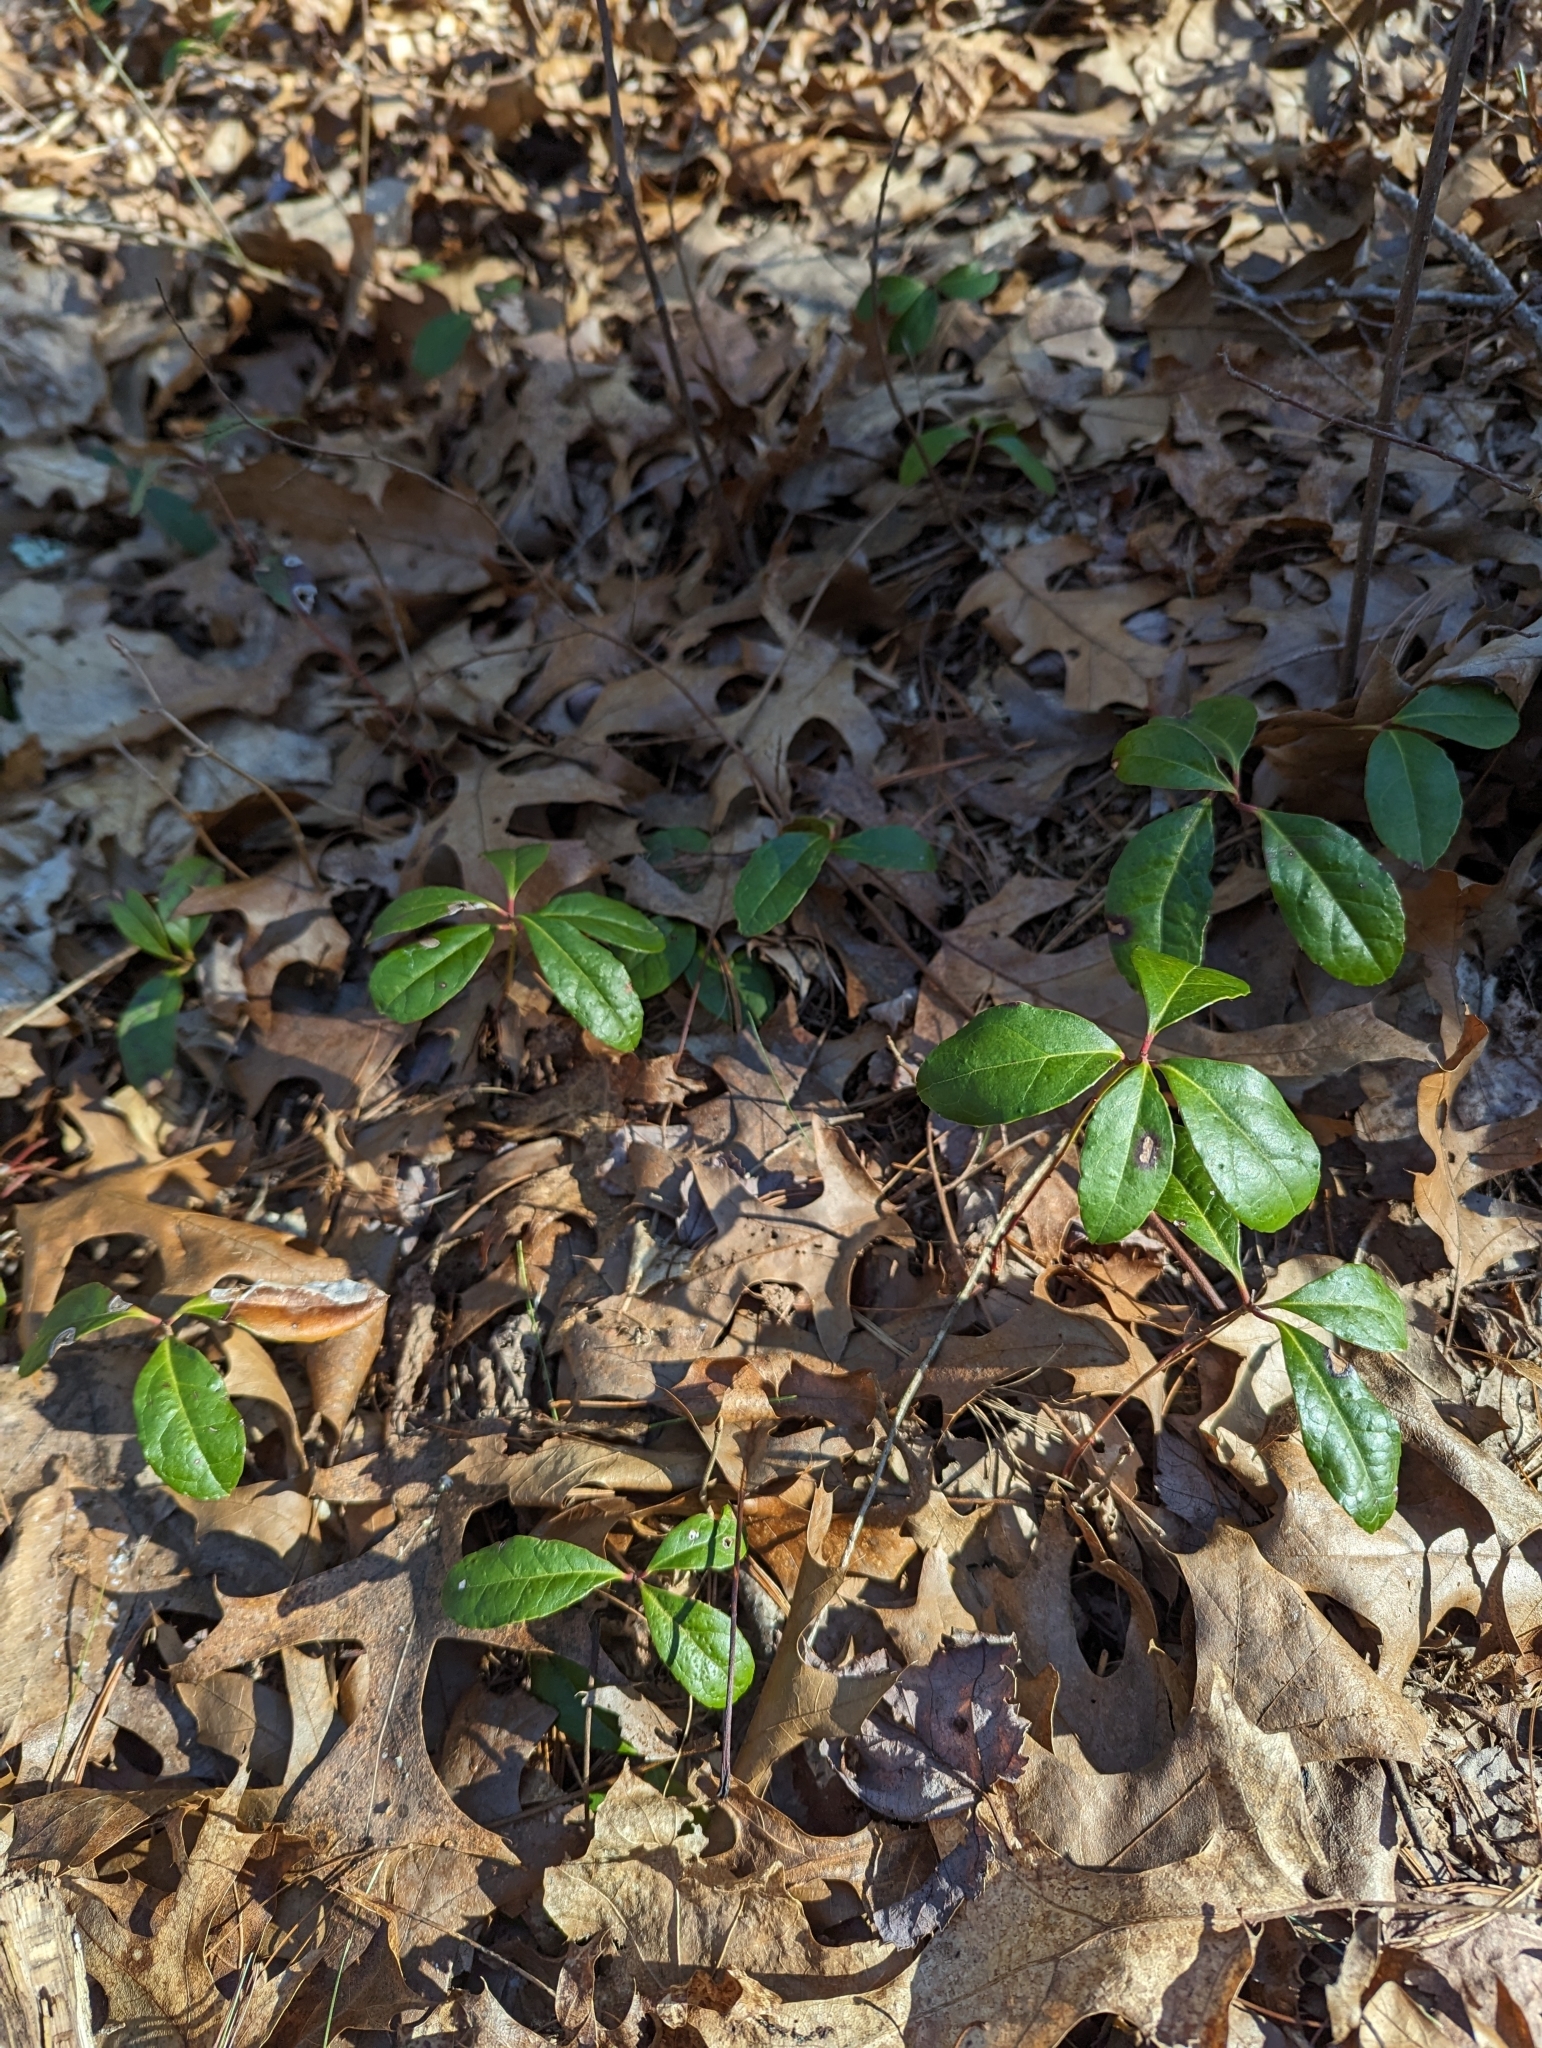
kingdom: Plantae
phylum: Tracheophyta
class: Magnoliopsida
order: Ericales
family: Ericaceae
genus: Gaultheria
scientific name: Gaultheria procumbens
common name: Checkerberry
